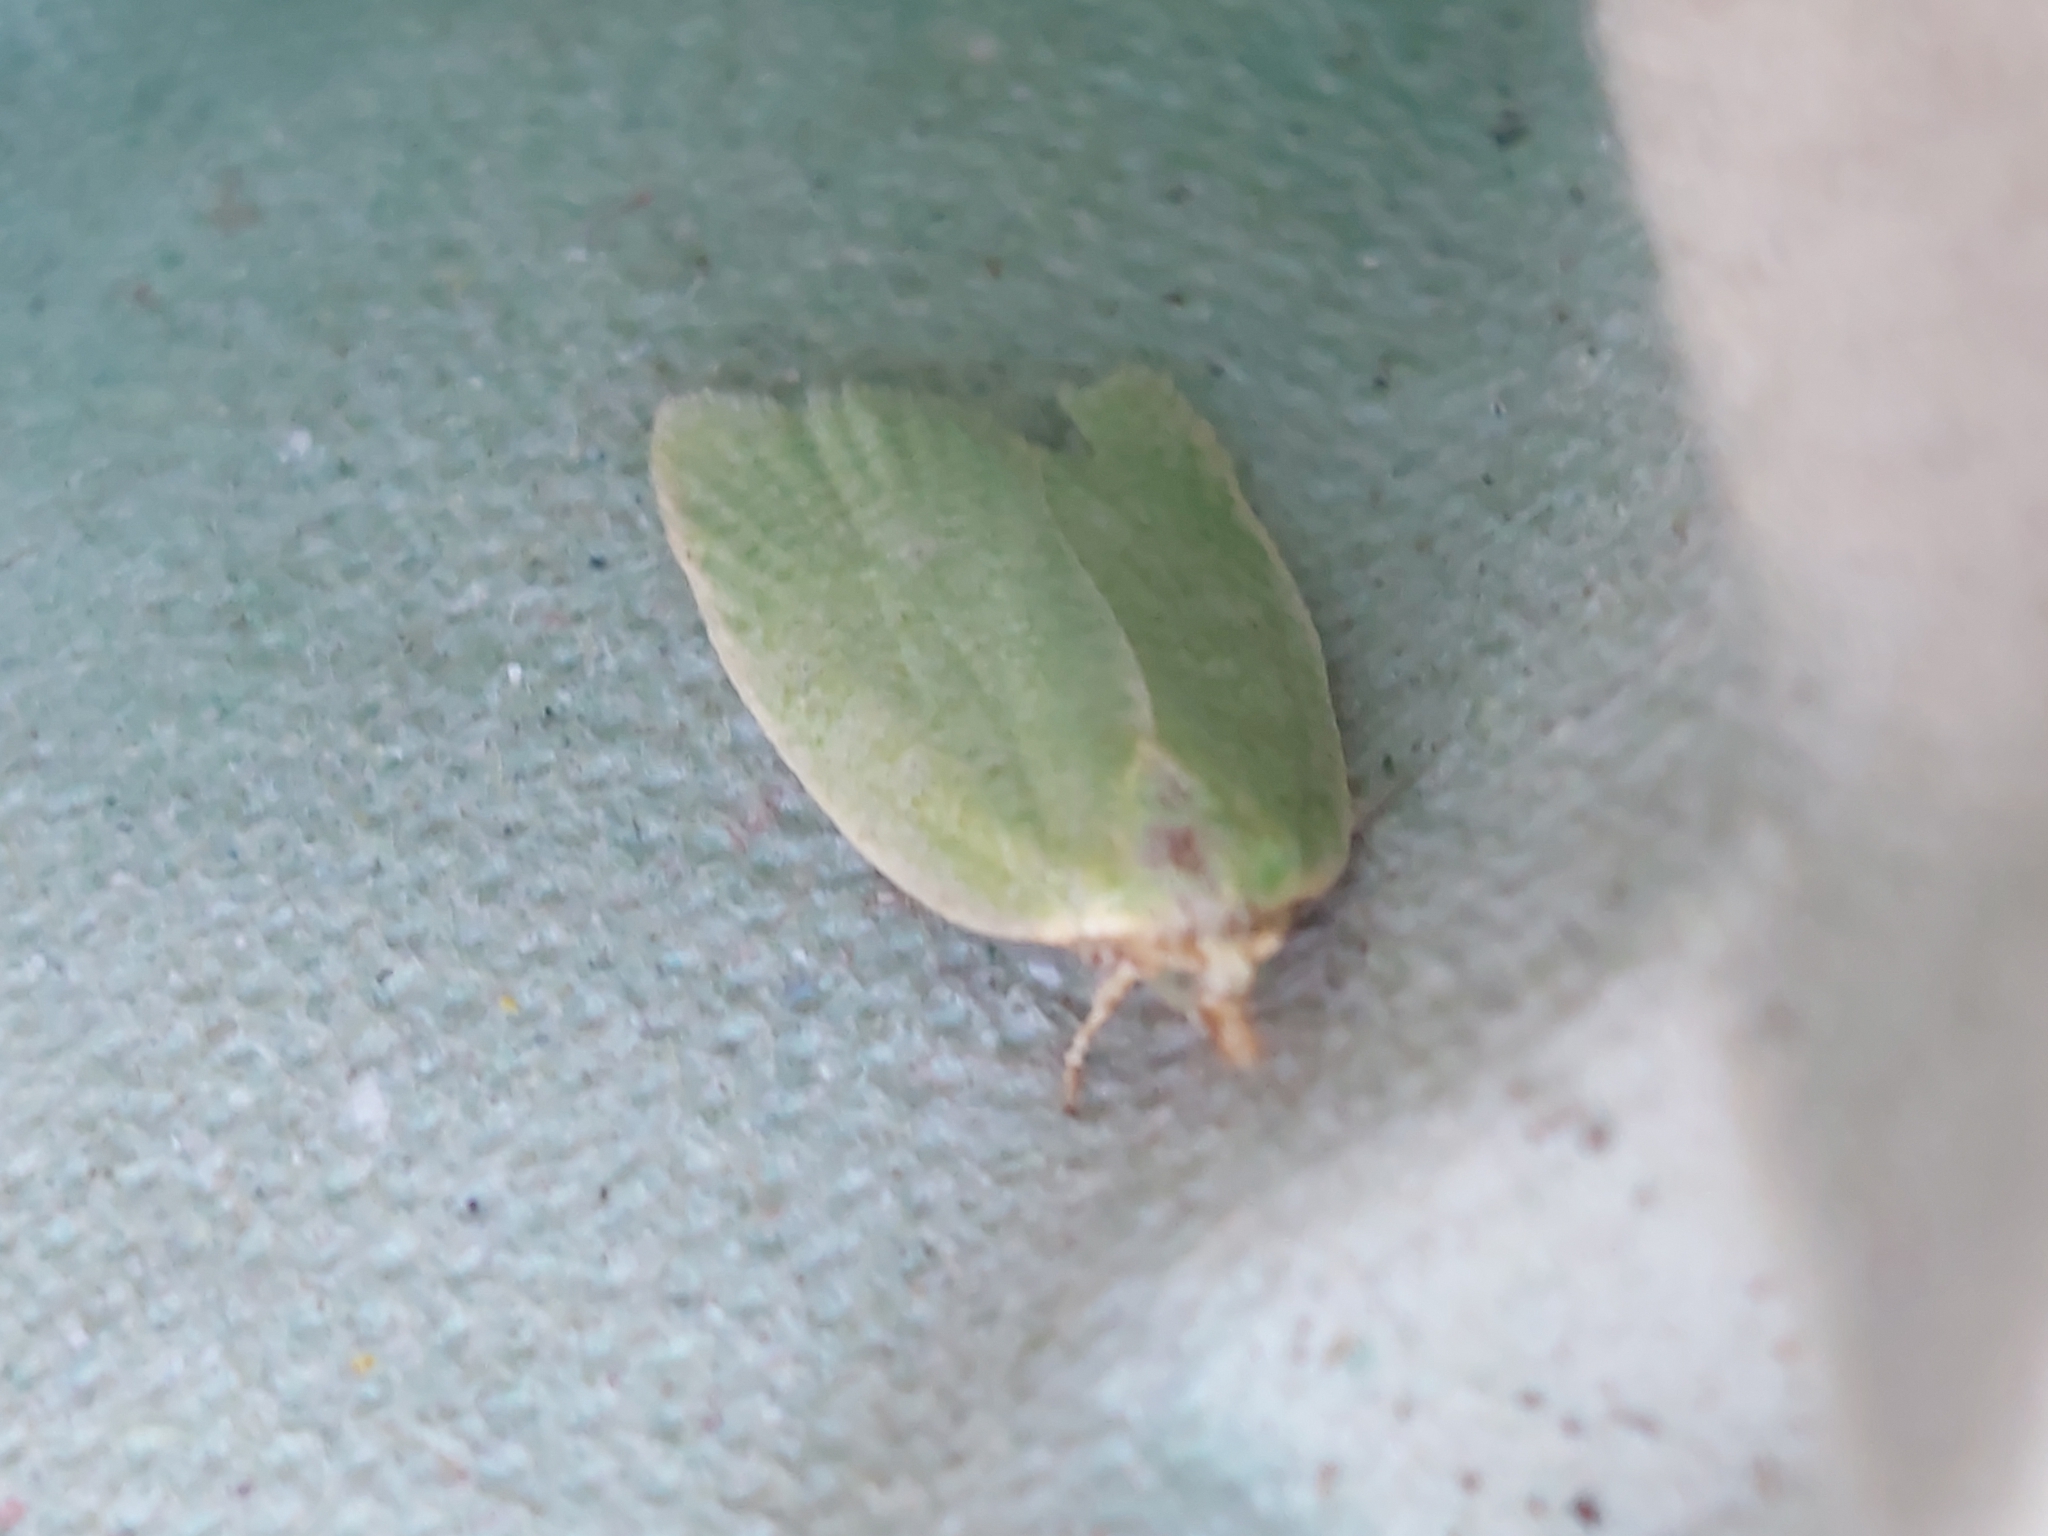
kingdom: Animalia
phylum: Arthropoda
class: Insecta
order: Lepidoptera
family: Tortricidae
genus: Tortrix
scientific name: Tortrix viridana
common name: Green oak tortrix
